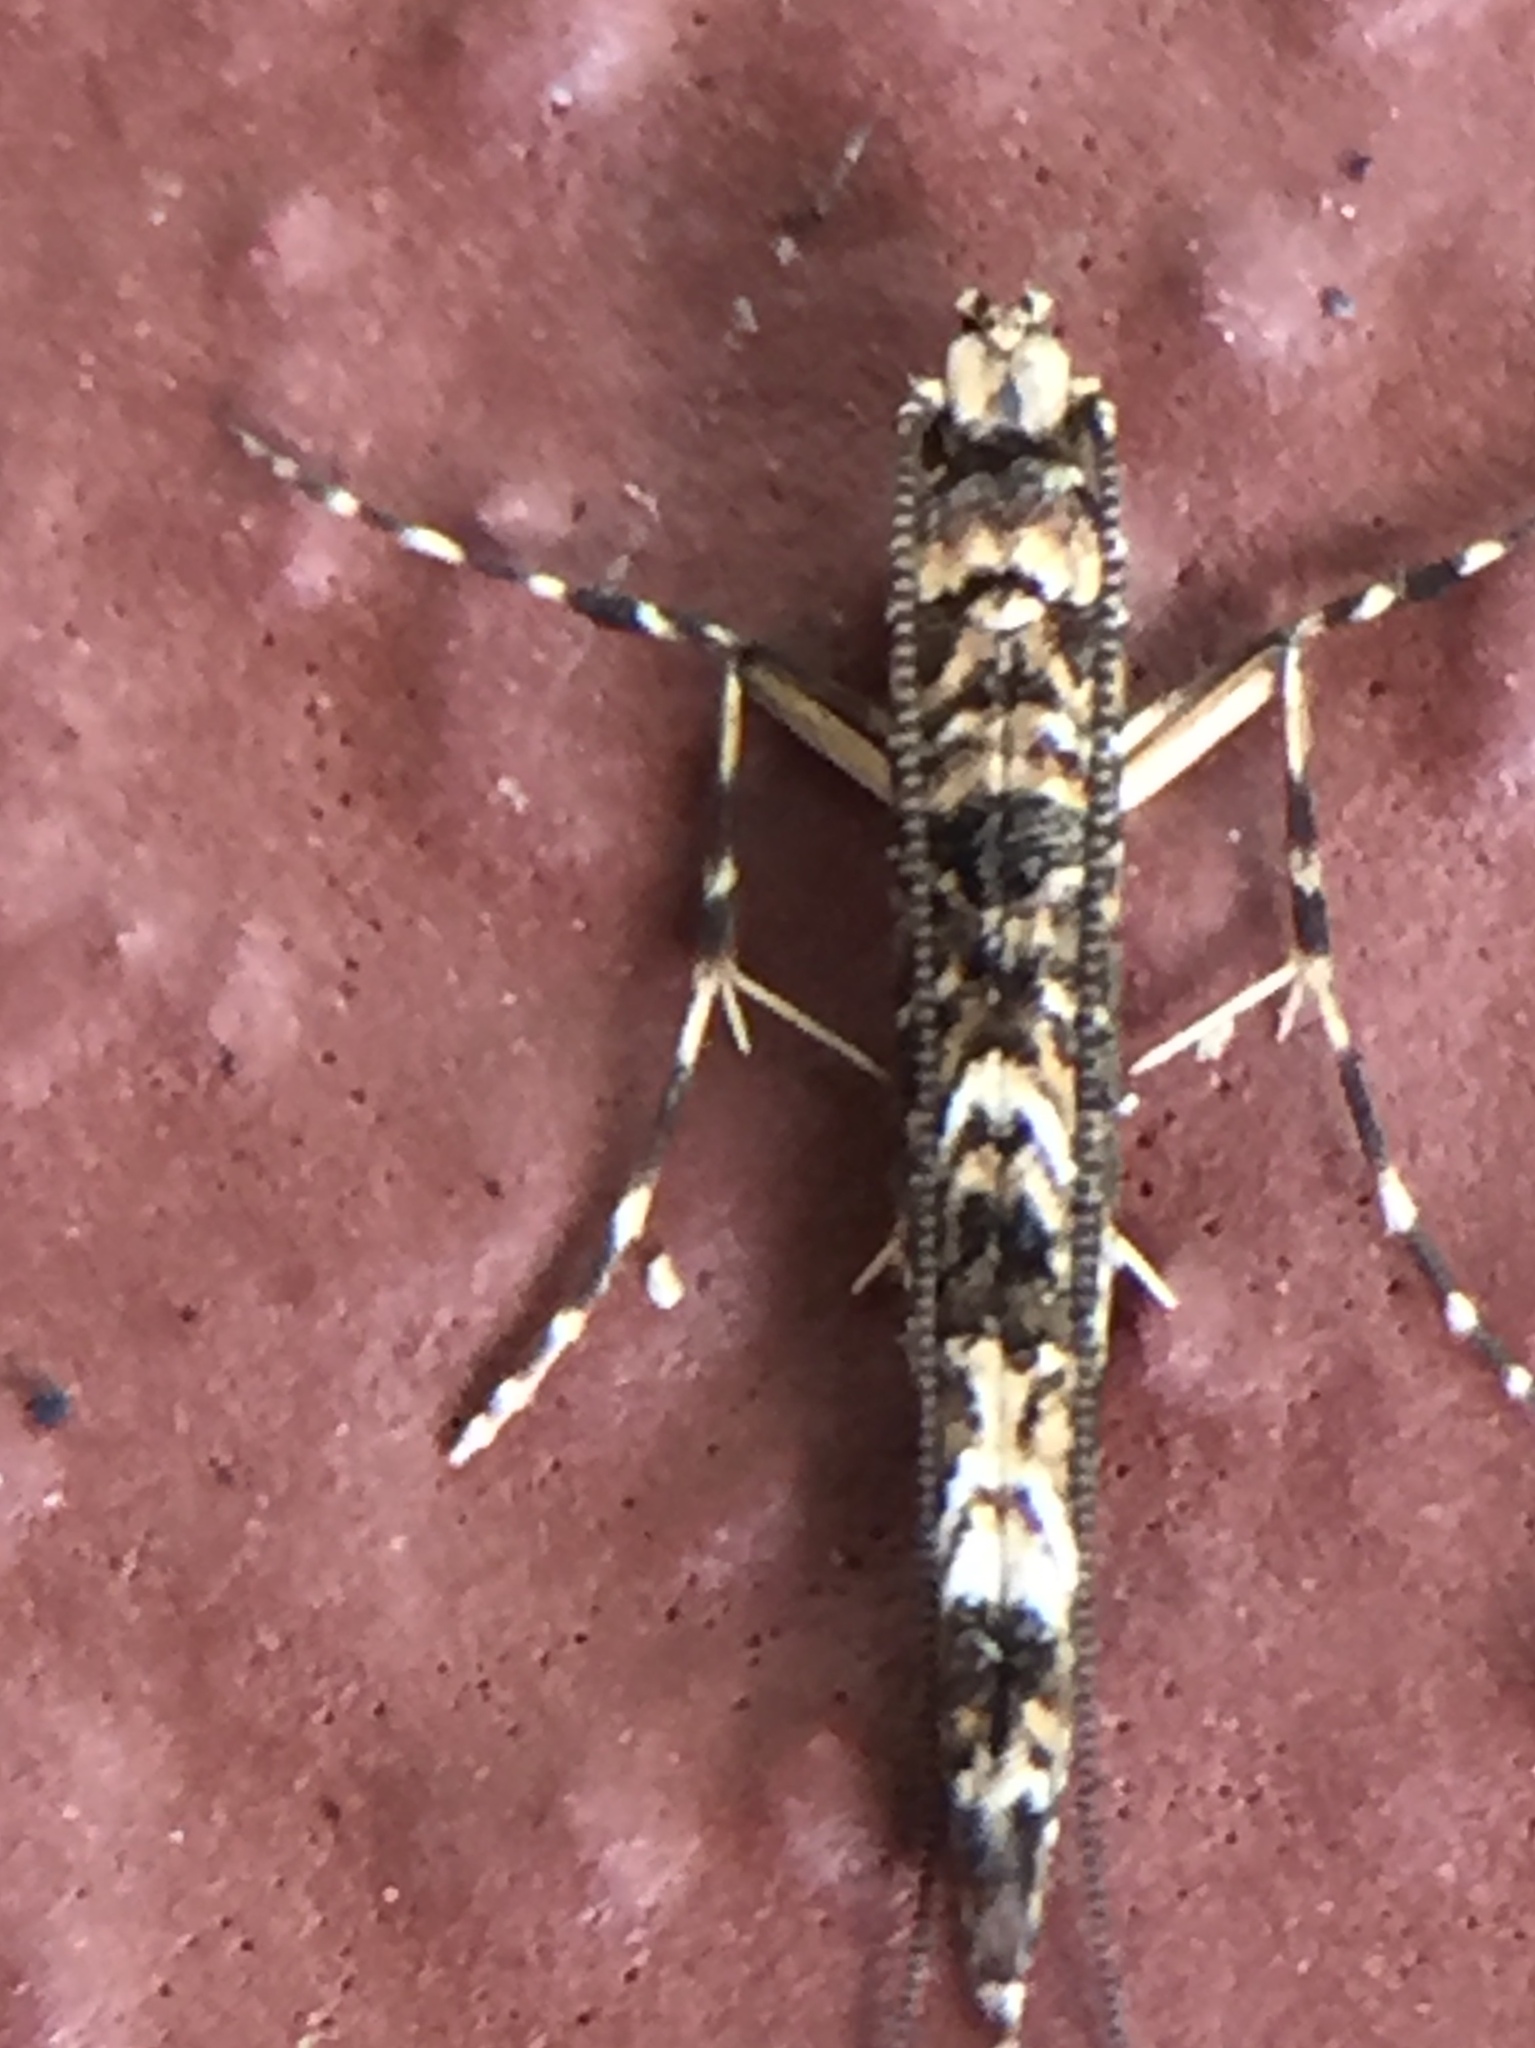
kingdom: Animalia
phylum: Arthropoda
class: Insecta
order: Lepidoptera
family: Gracillariidae
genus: Conopomorpha
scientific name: Conopomorpha cyanospila
